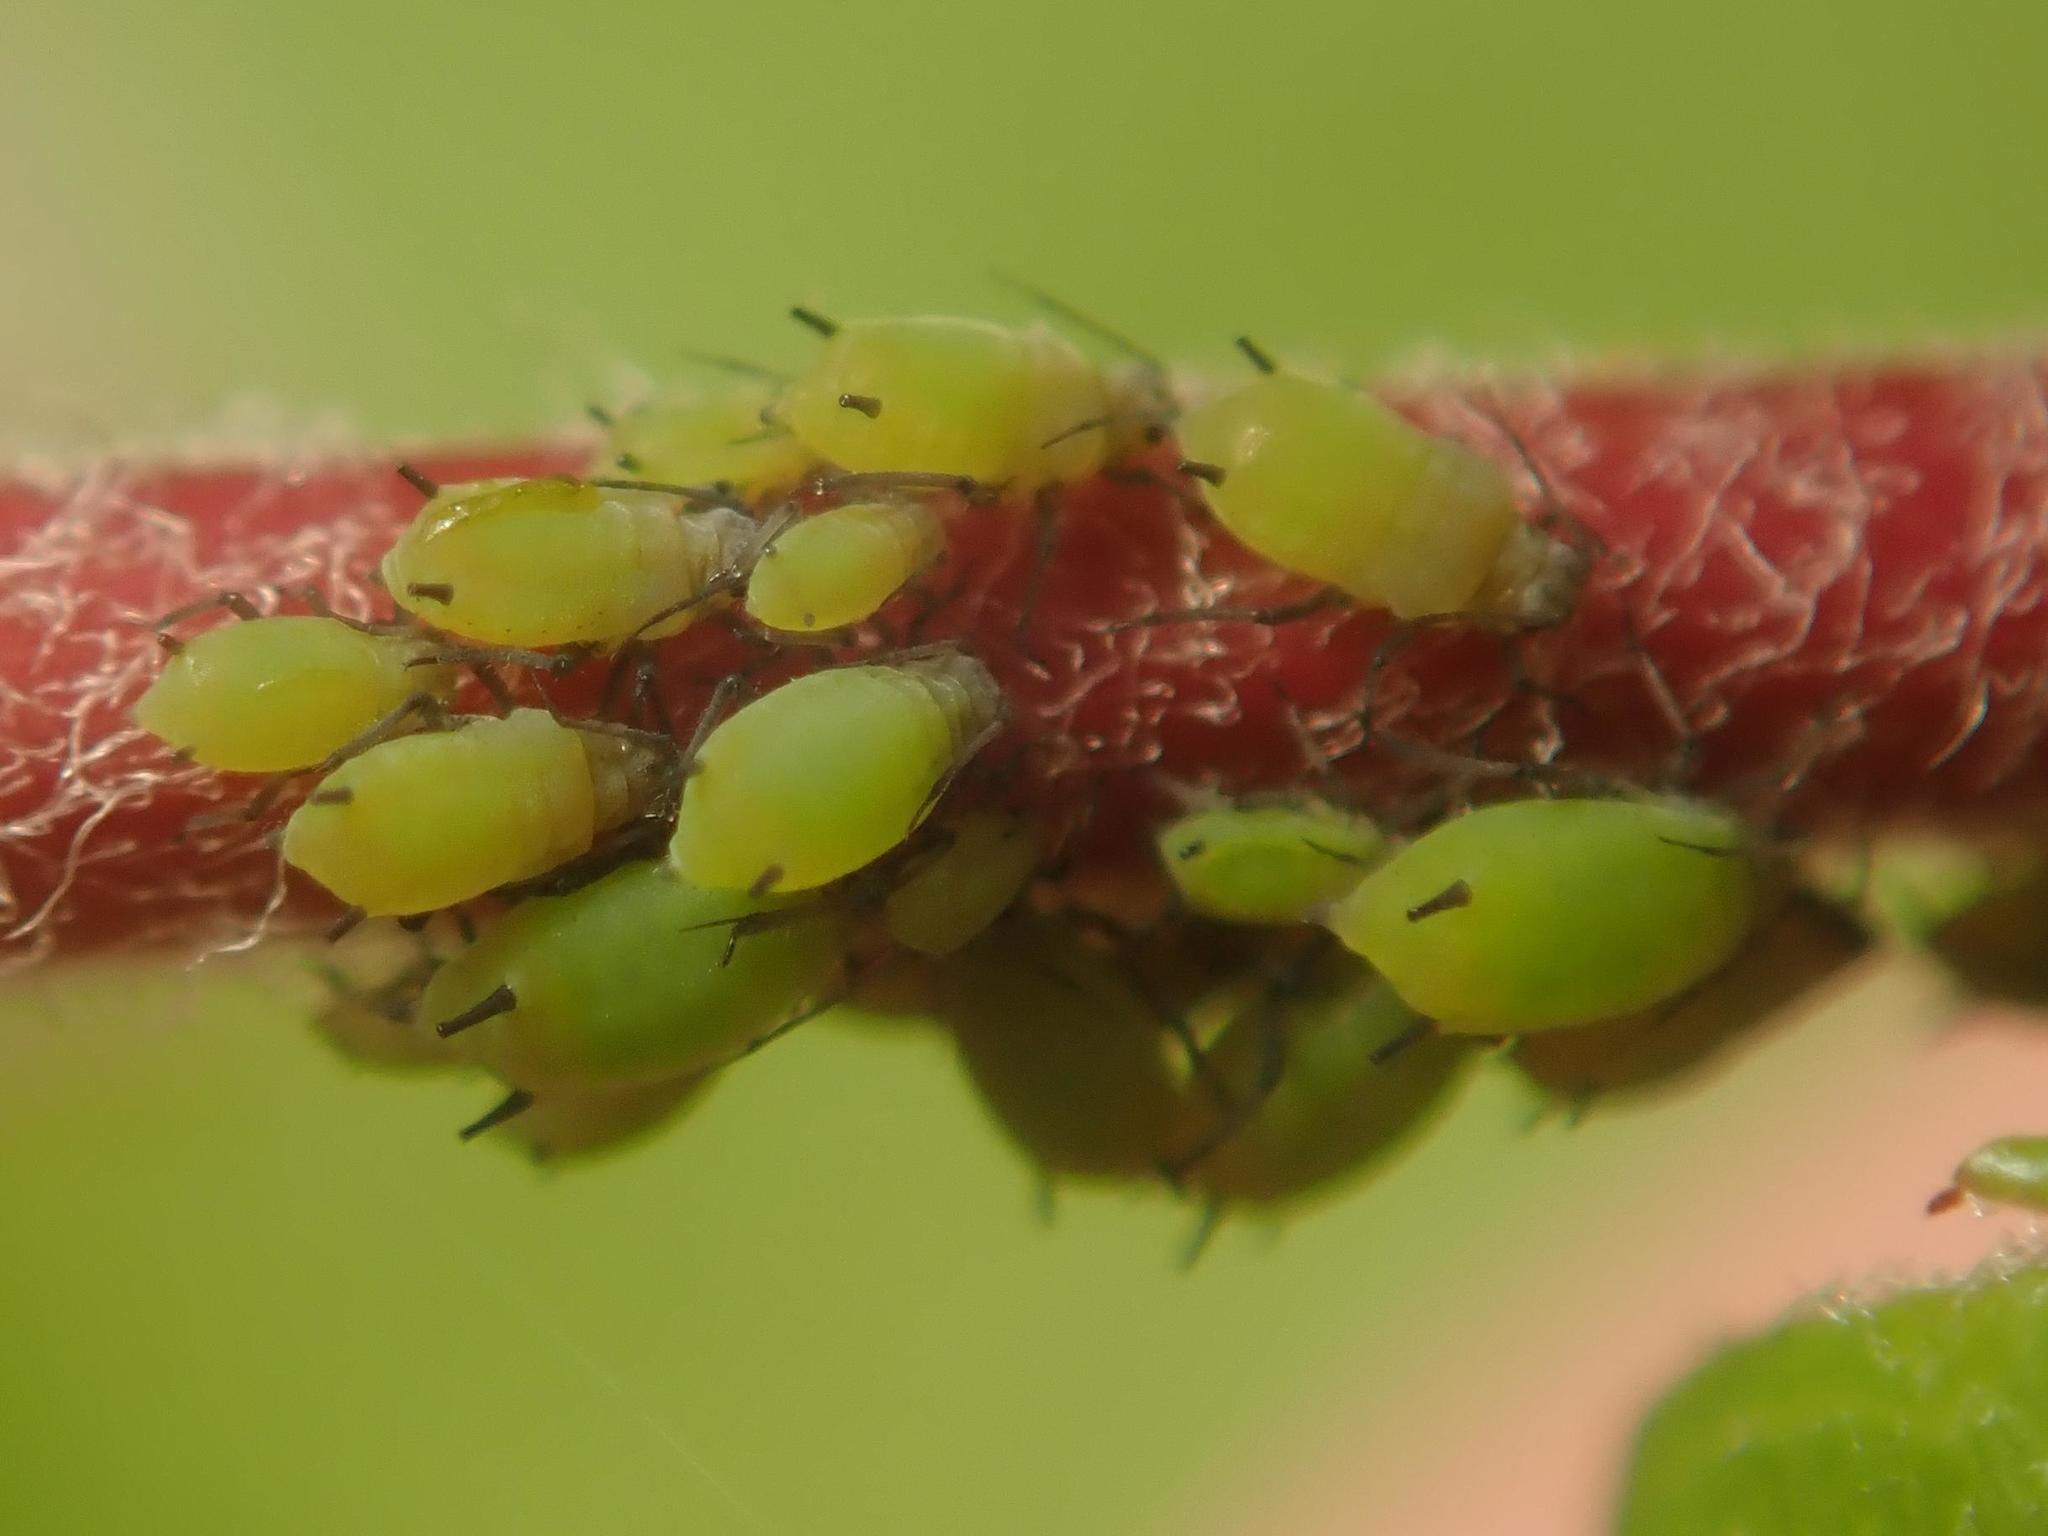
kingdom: Animalia
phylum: Arthropoda
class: Insecta
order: Hemiptera
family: Aphididae
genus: Aphis
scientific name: Aphis
